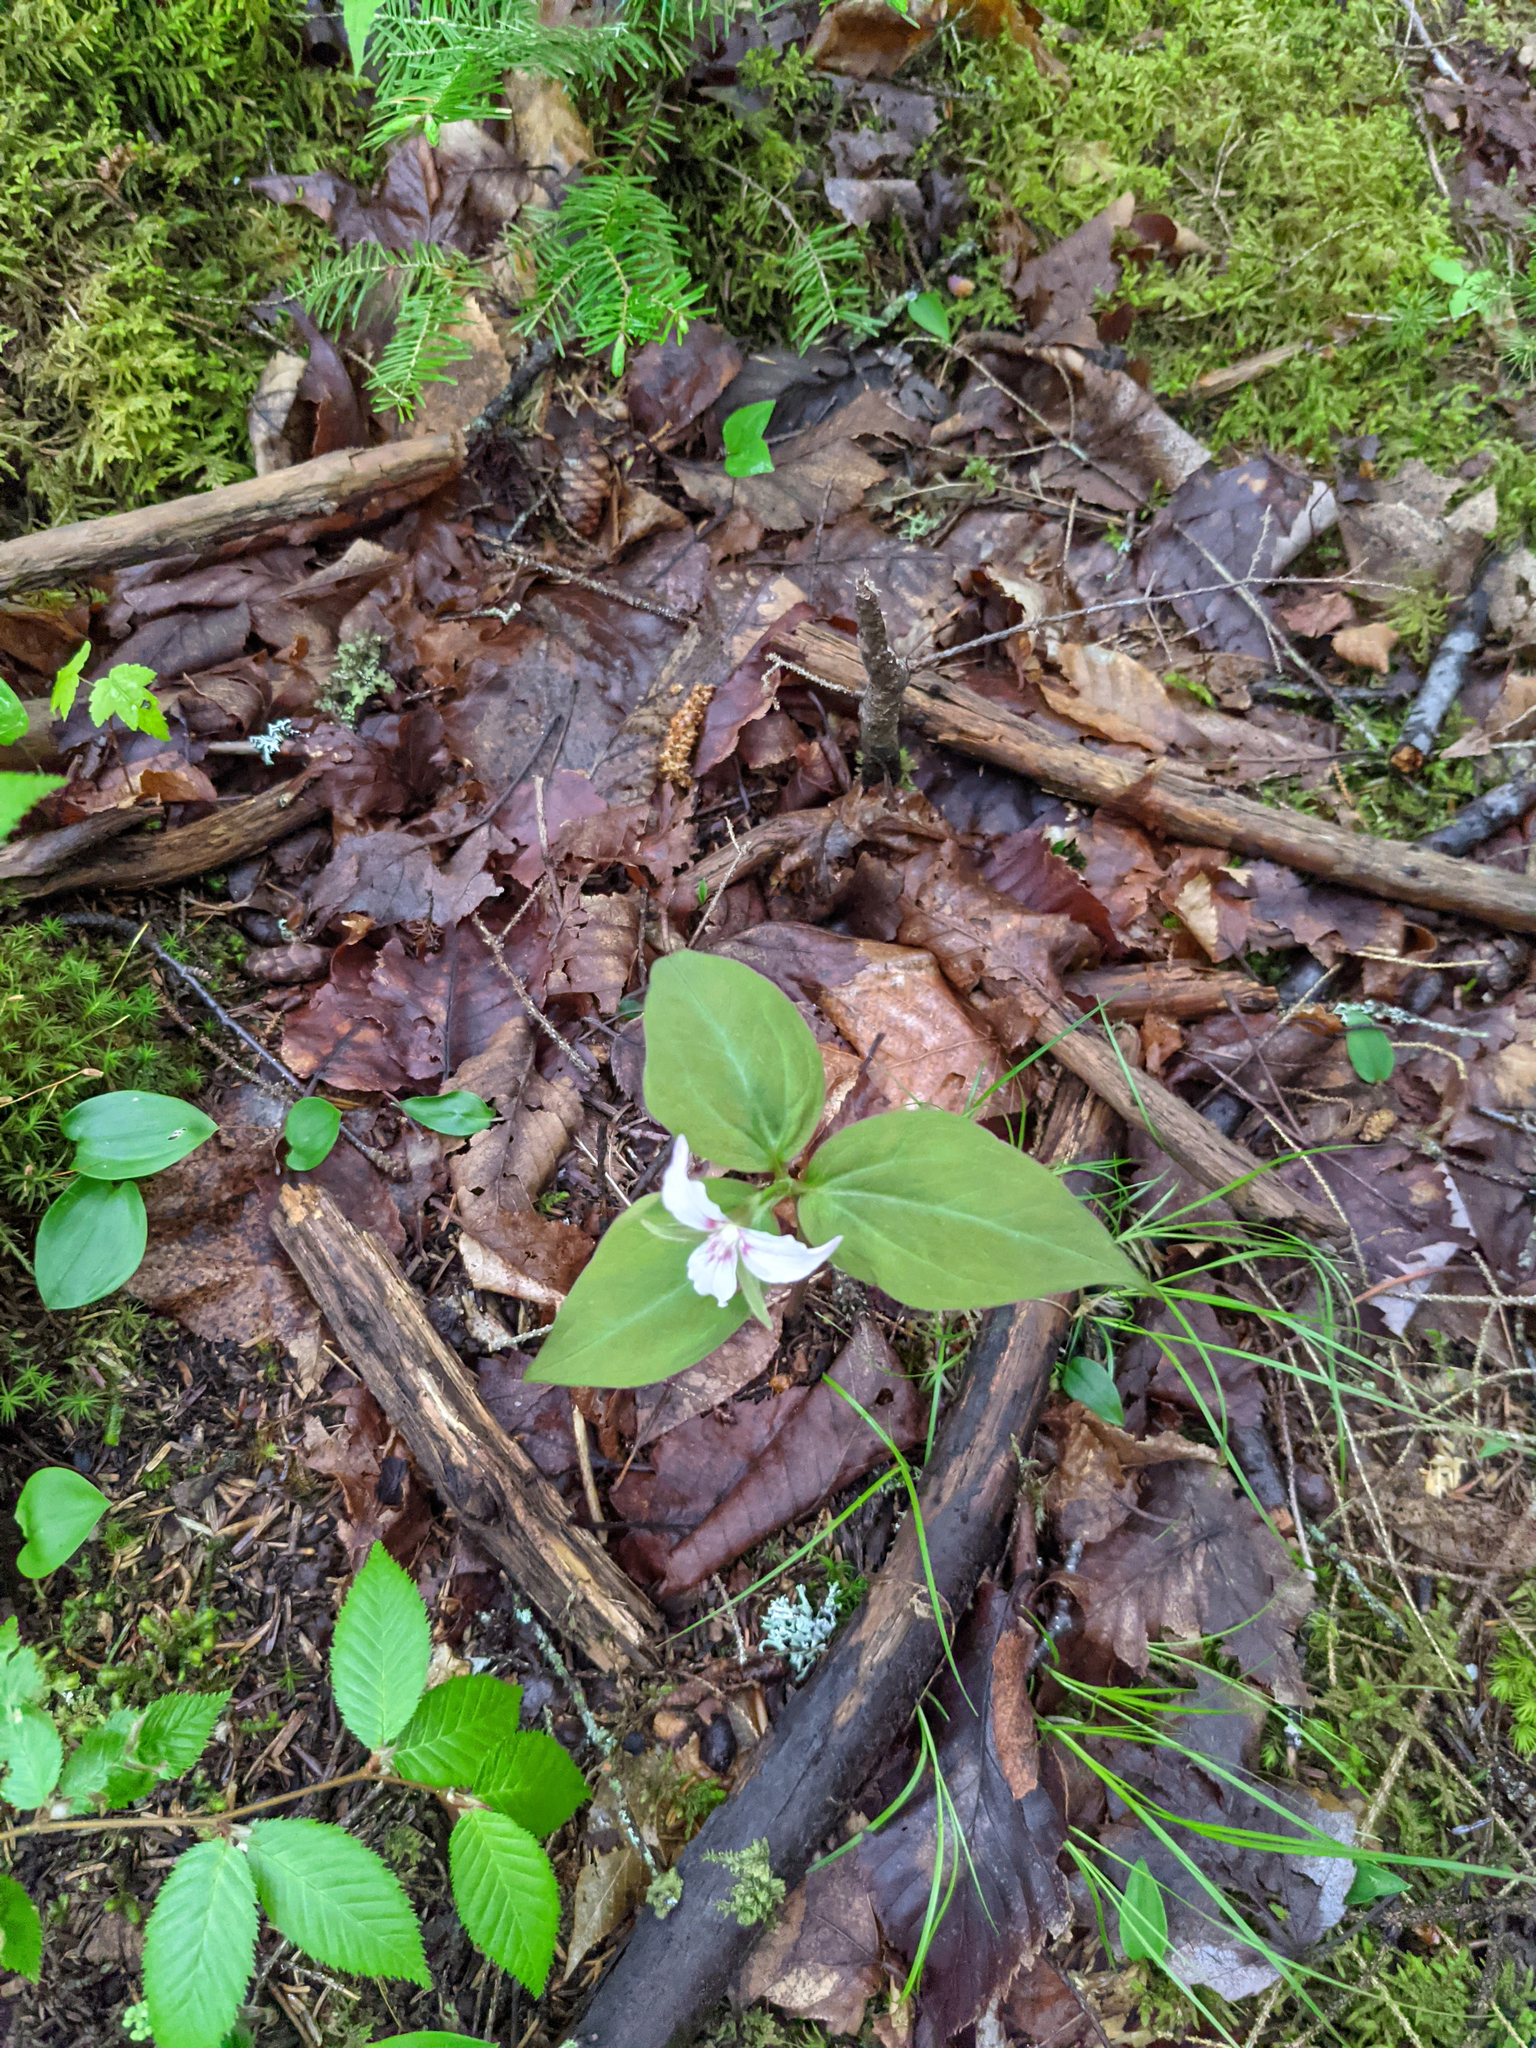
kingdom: Plantae
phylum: Tracheophyta
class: Liliopsida
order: Liliales
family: Melanthiaceae
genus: Trillium
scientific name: Trillium undulatum
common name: Paint trillium
